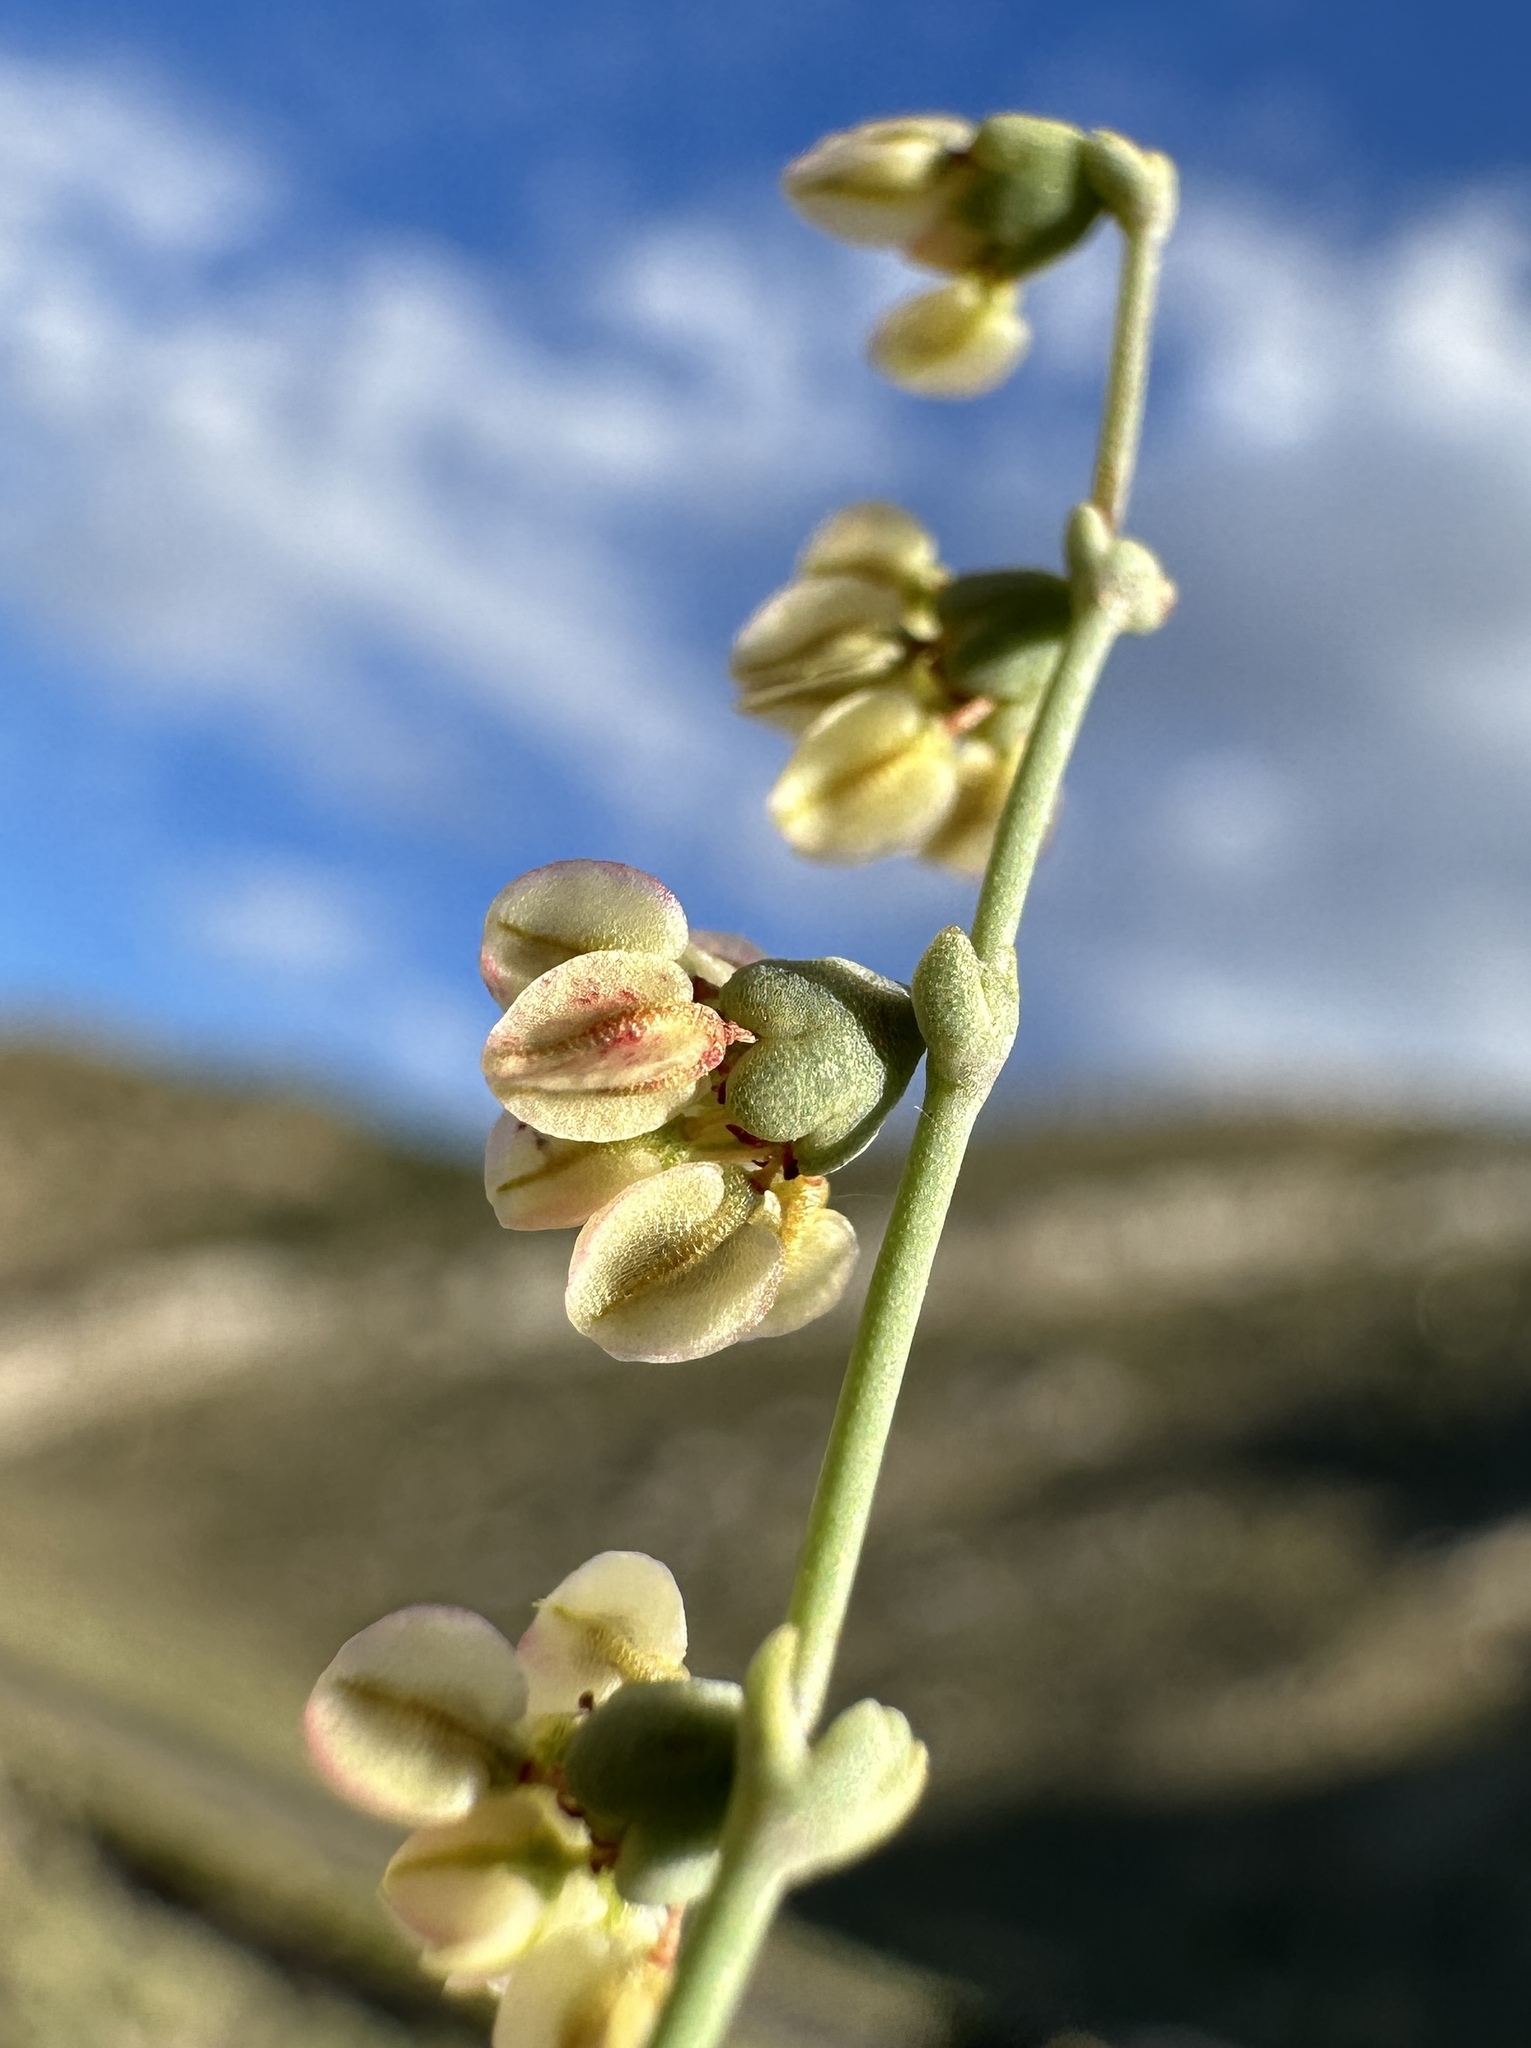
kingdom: Plantae
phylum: Tracheophyta
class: Magnoliopsida
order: Caryophyllales
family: Polygonaceae
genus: Eriogonum
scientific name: Eriogonum hookeri
